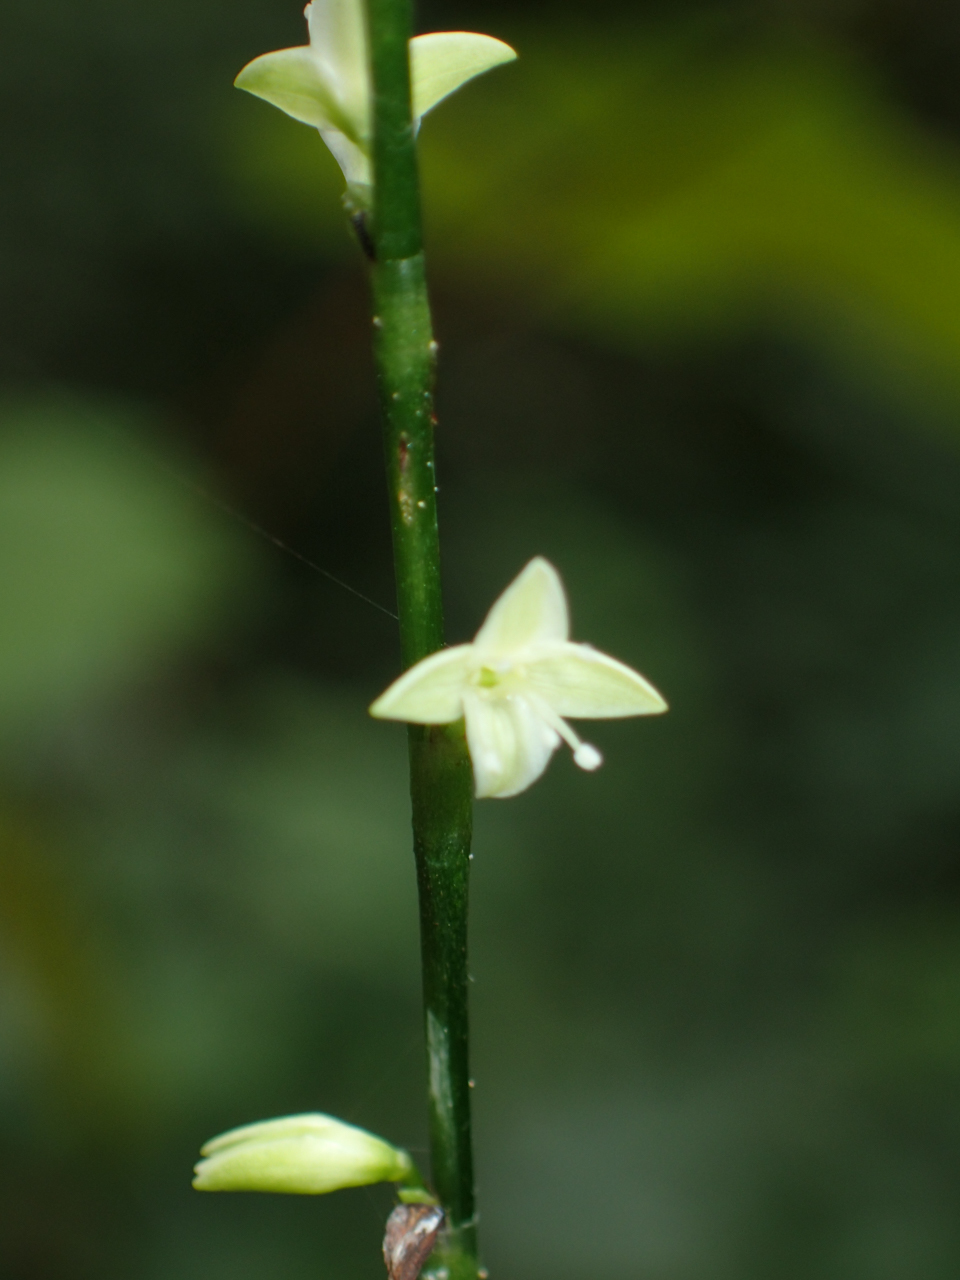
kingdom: Plantae
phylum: Tracheophyta
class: Magnoliopsida
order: Caryophyllales
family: Polygonaceae
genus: Persicaria
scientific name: Persicaria virginiana
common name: Jumpseed
